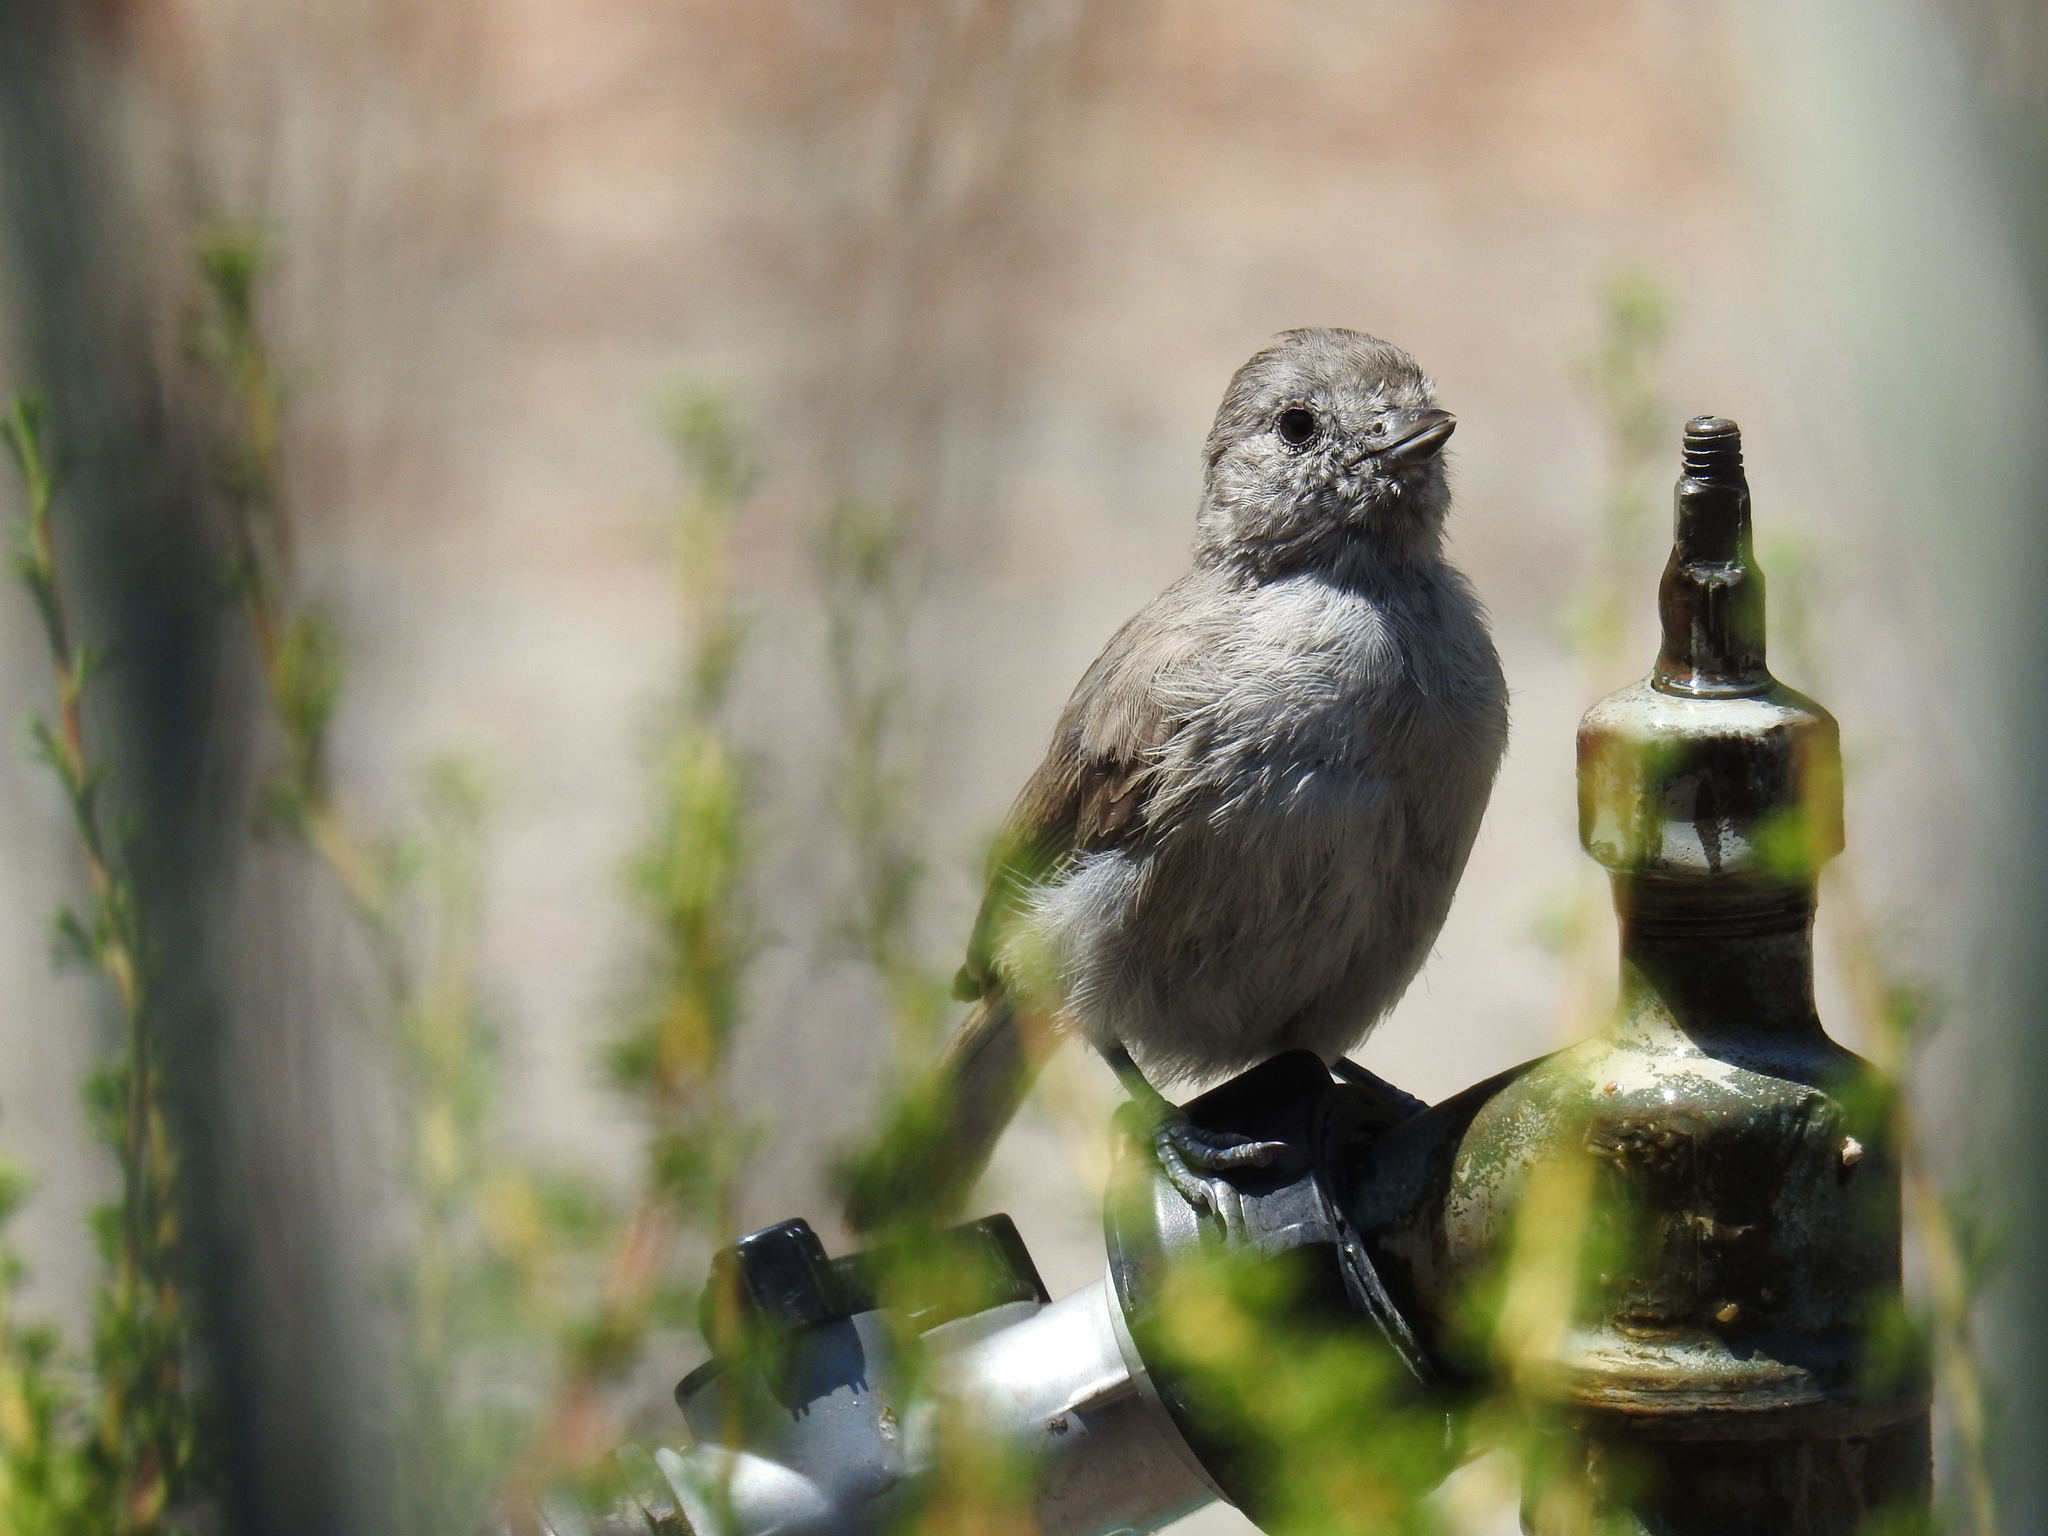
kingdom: Animalia
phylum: Chordata
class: Aves
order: Passeriformes
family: Paridae
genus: Baeolophus
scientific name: Baeolophus inornatus
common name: Oak titmouse
